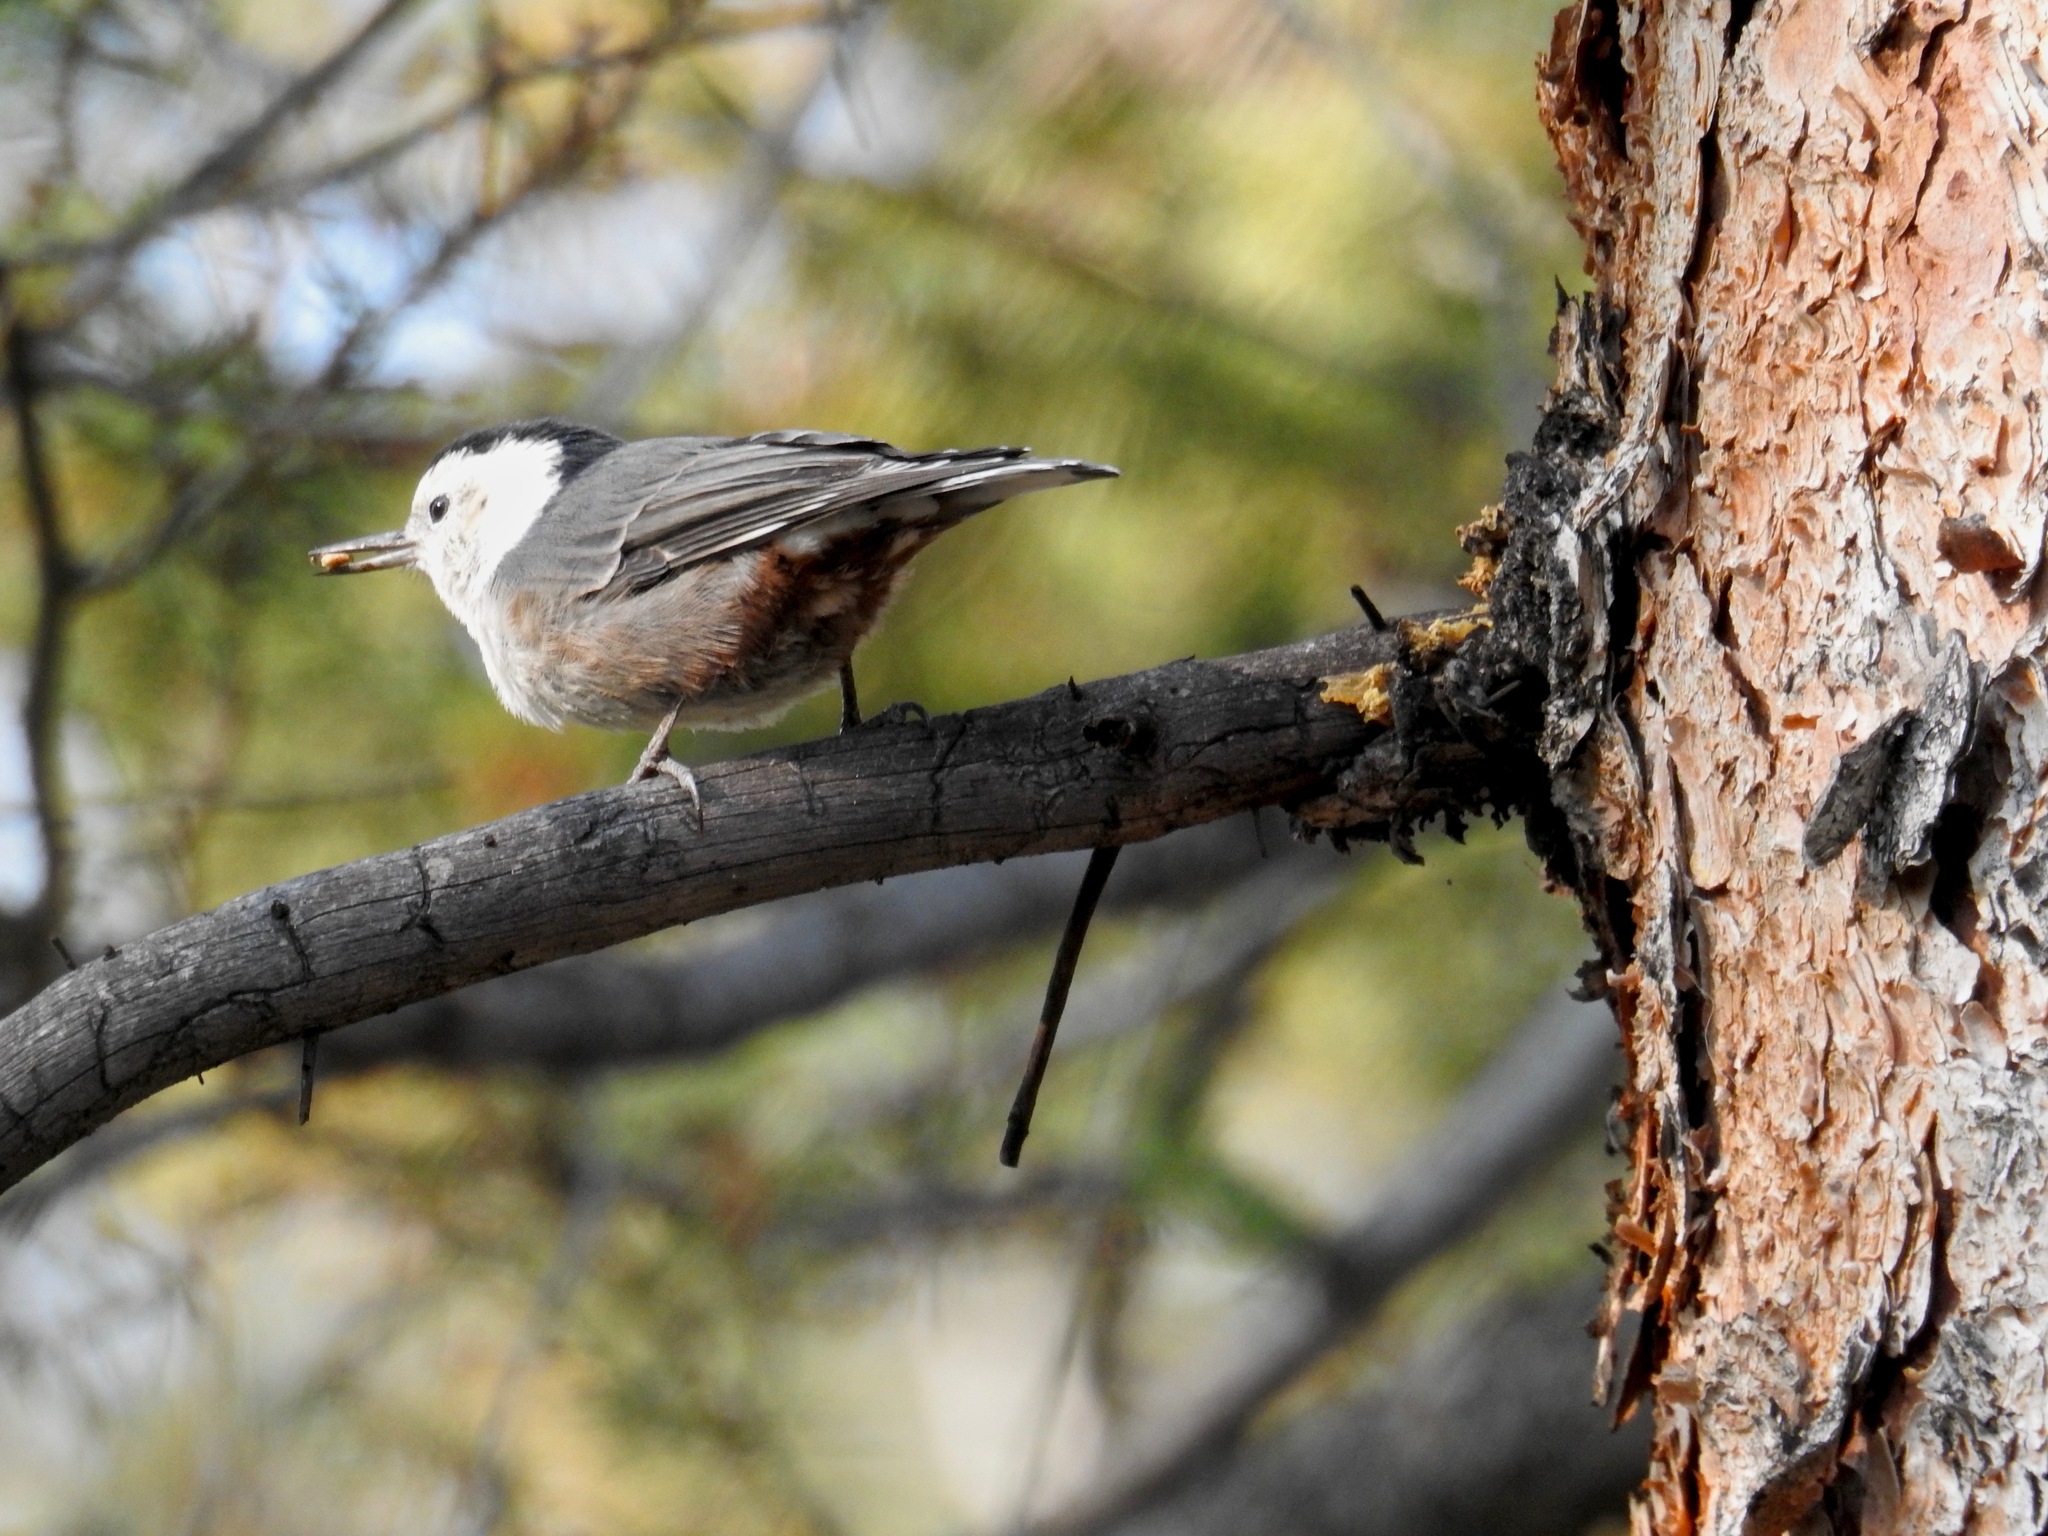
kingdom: Animalia
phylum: Chordata
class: Aves
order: Passeriformes
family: Sittidae
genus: Sitta
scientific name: Sitta carolinensis
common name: White-breasted nuthatch
